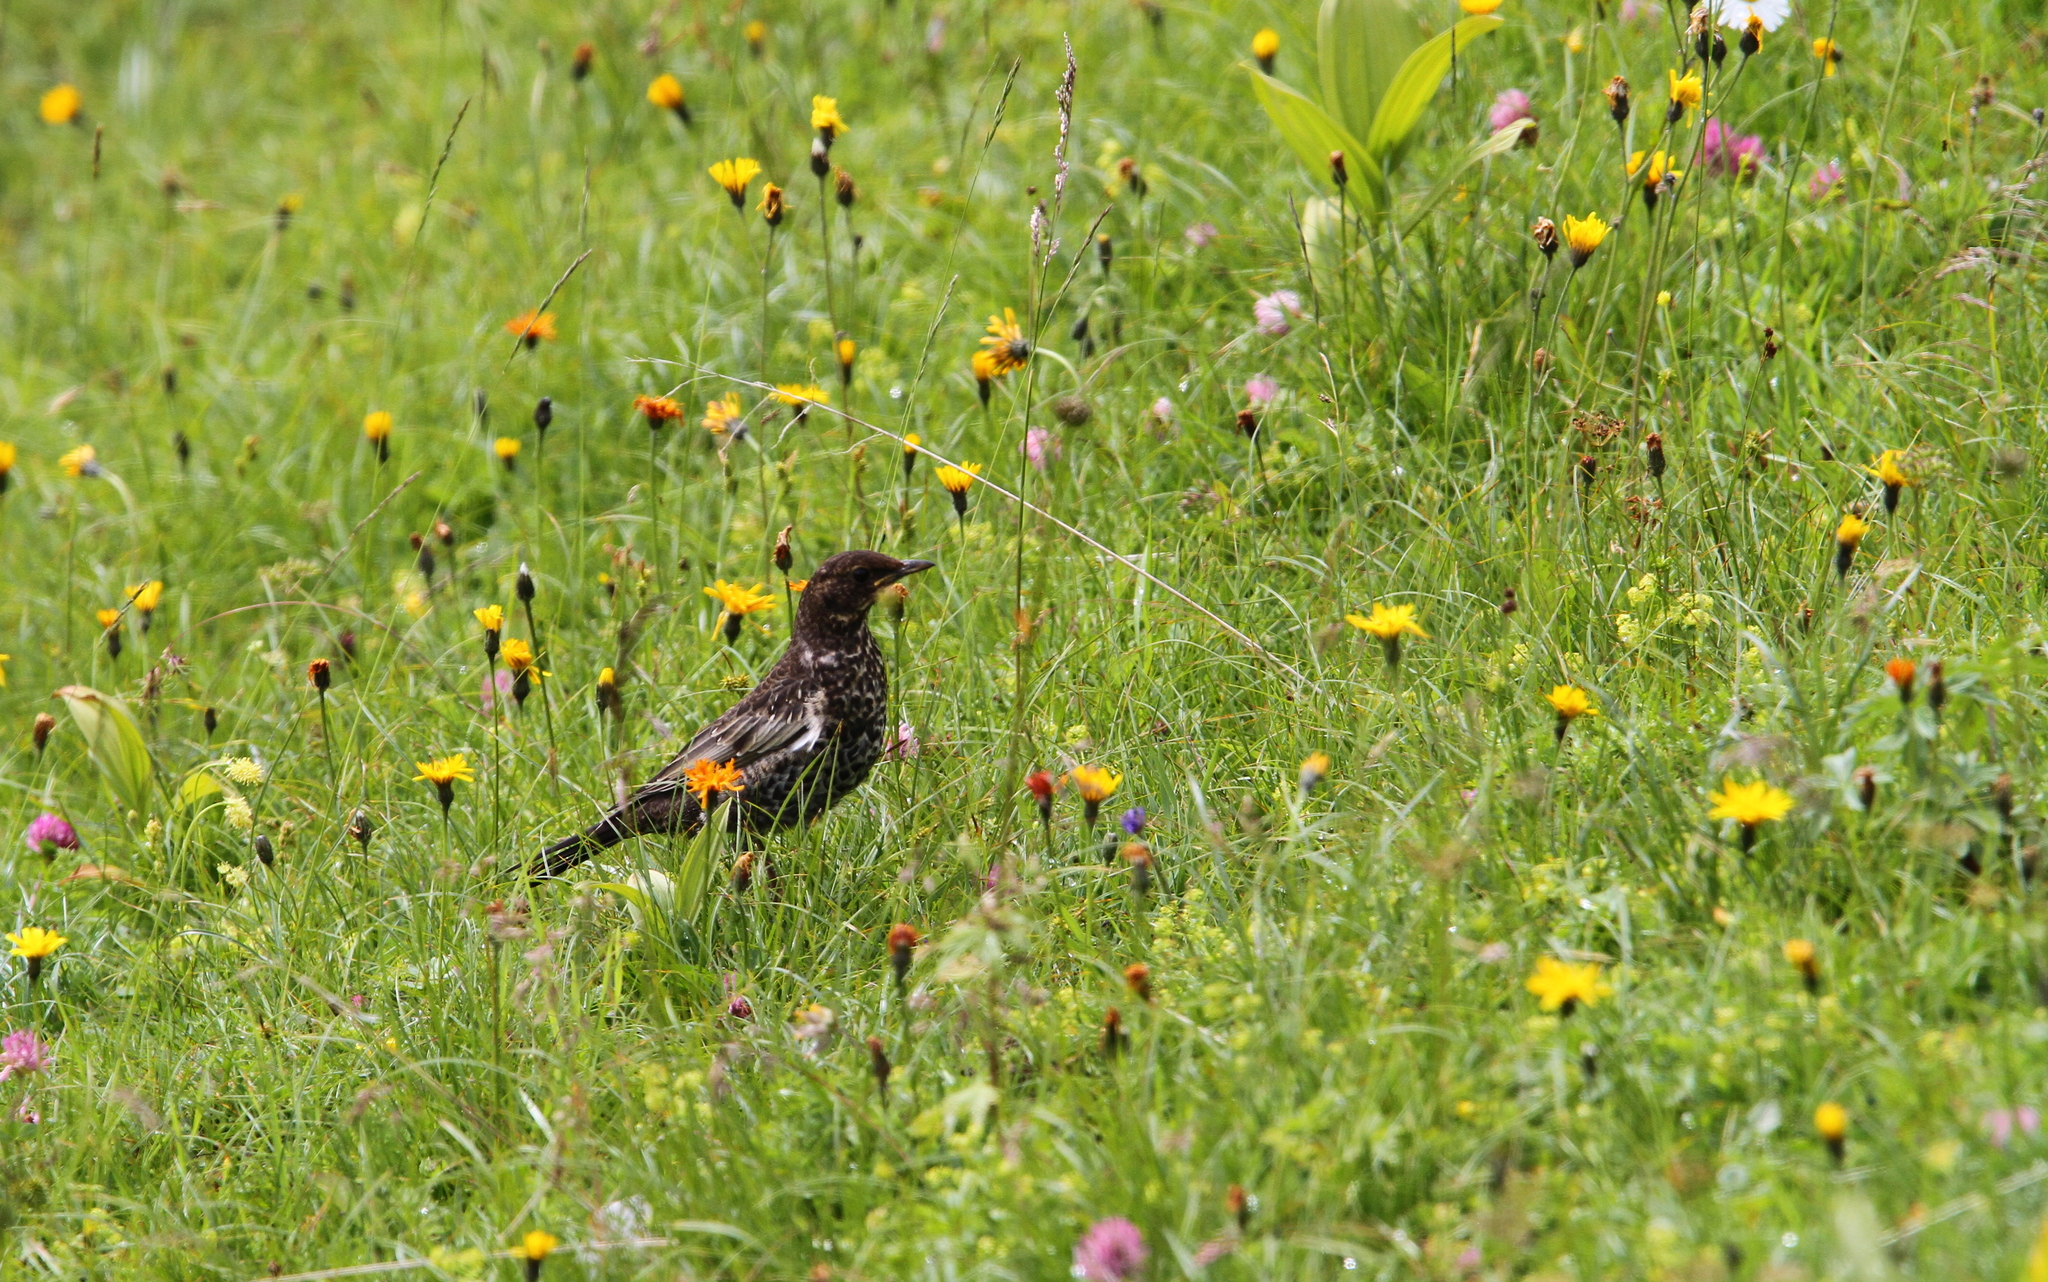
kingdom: Animalia
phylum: Chordata
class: Aves
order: Passeriformes
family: Turdidae
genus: Turdus
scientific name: Turdus torquatus
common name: Ring ouzel
